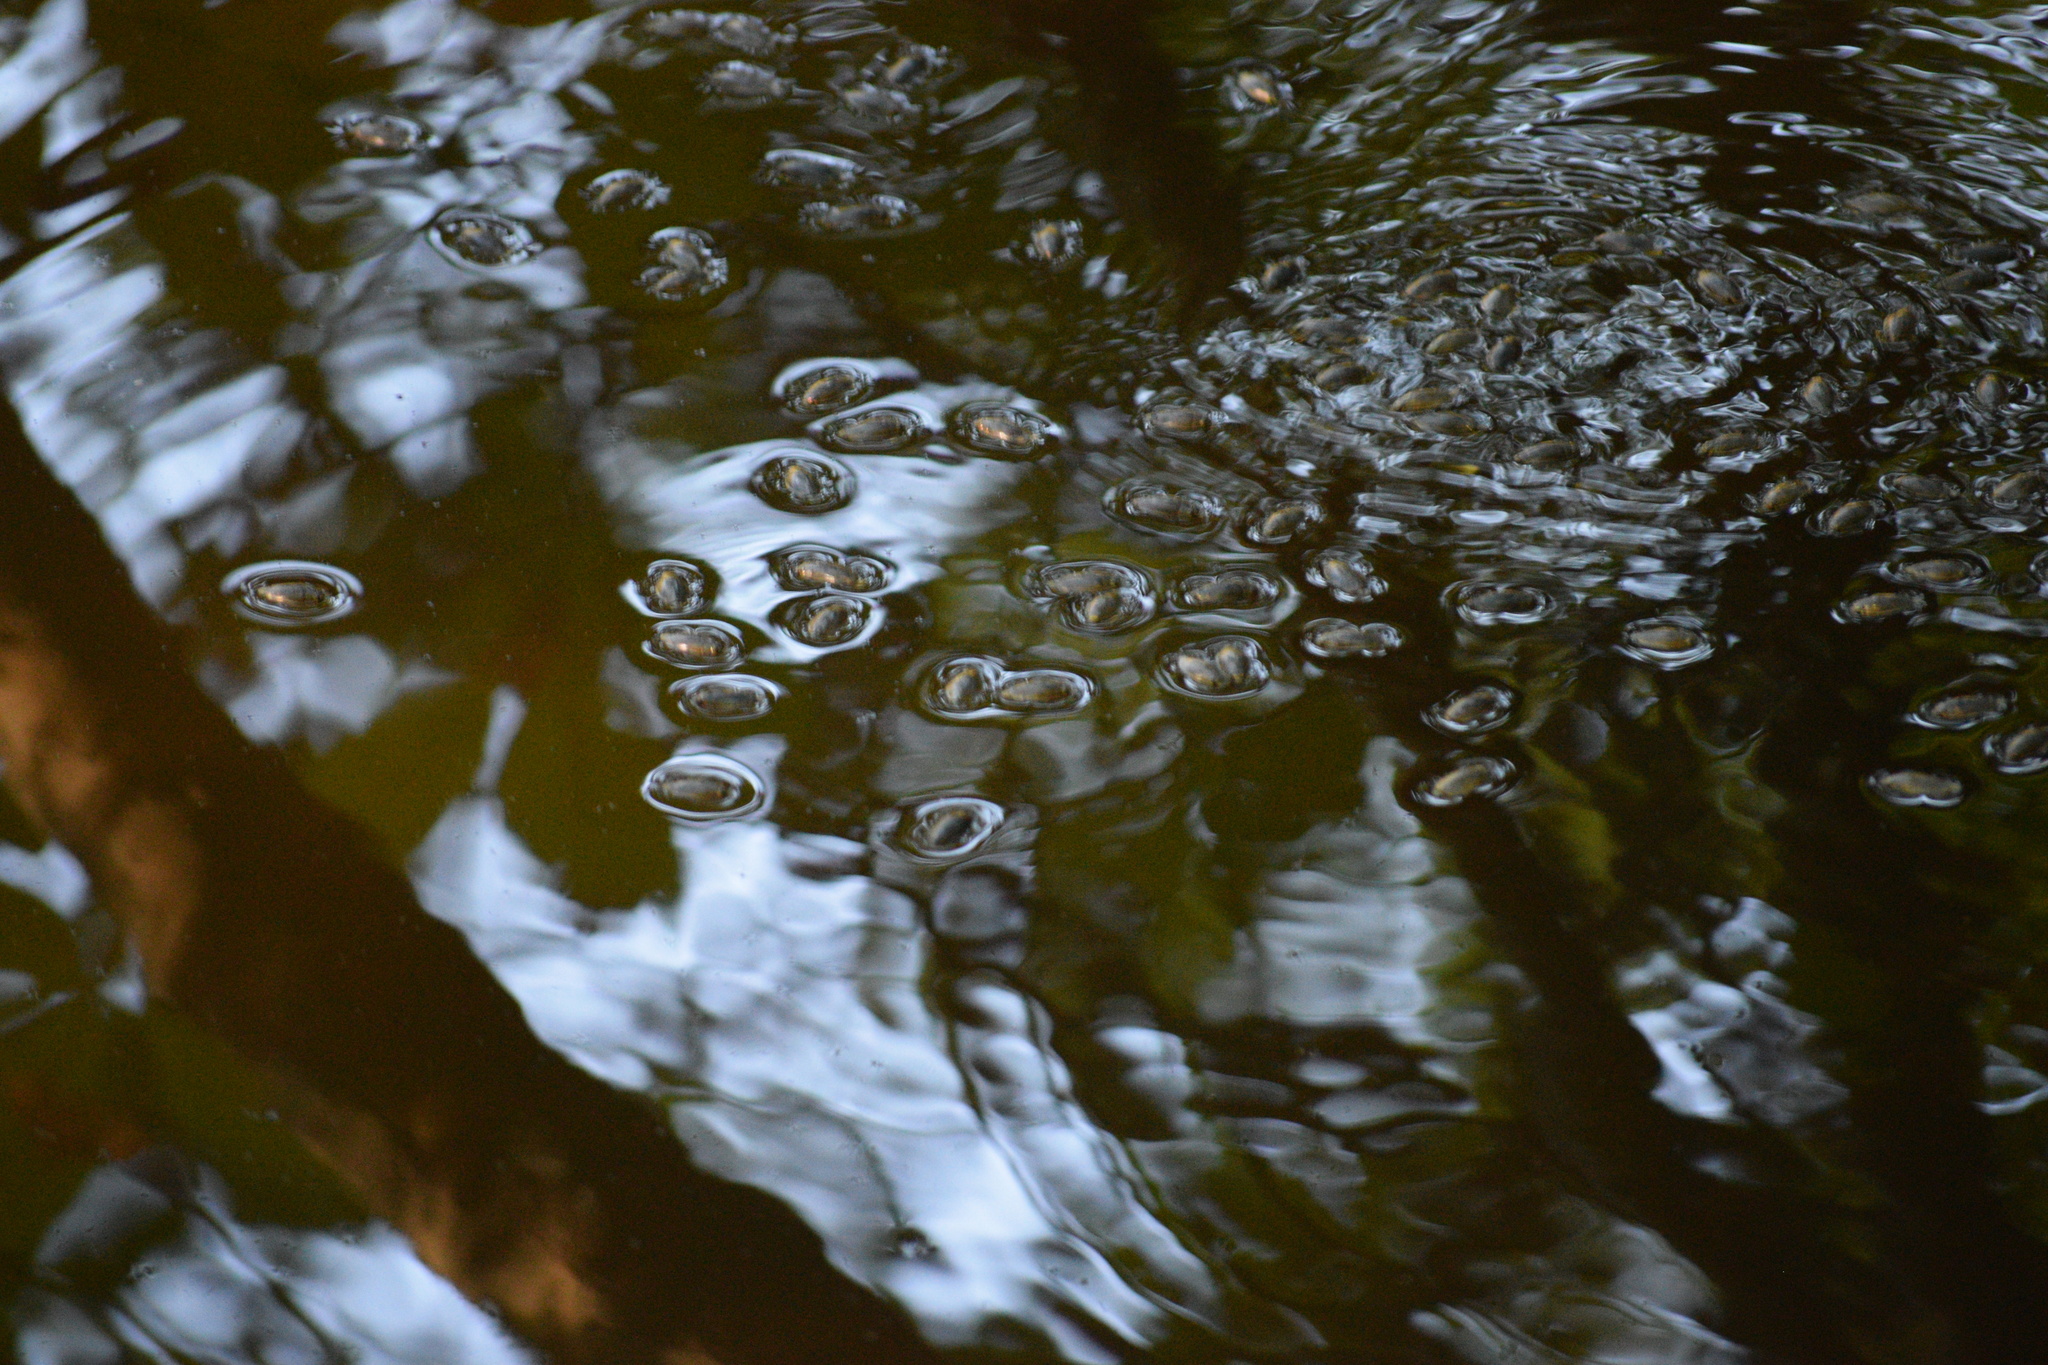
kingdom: Animalia
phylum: Arthropoda
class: Insecta
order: Coleoptera
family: Gyrinidae
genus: Dineutus
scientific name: Dineutus
